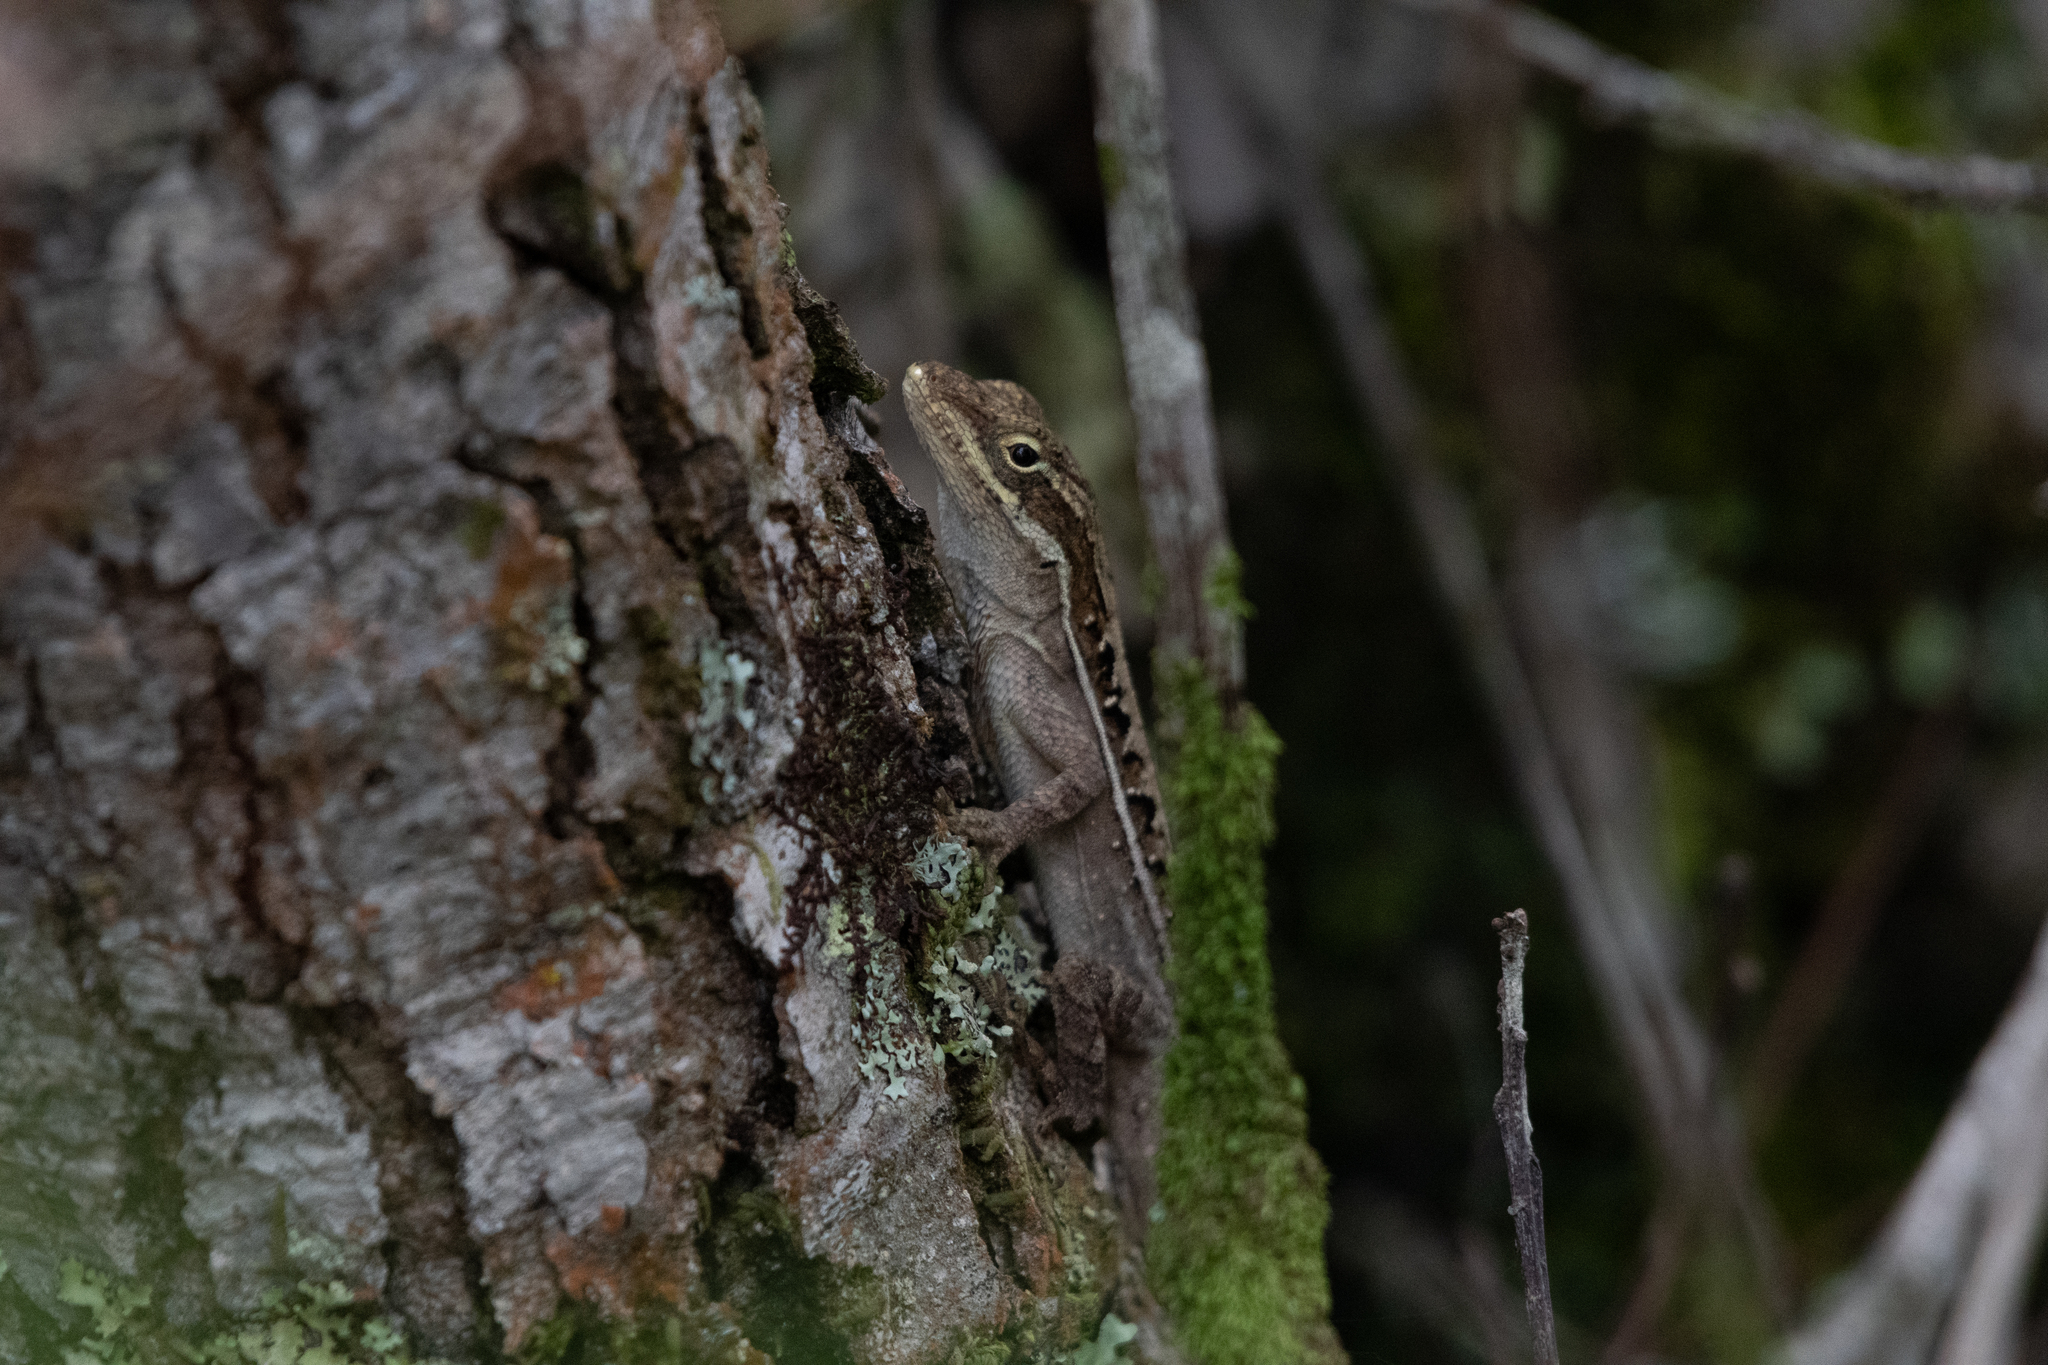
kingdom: Animalia
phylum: Chordata
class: Squamata
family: Dactyloidae
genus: Anolis
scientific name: Anolis caceresae
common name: Berta’s anole
